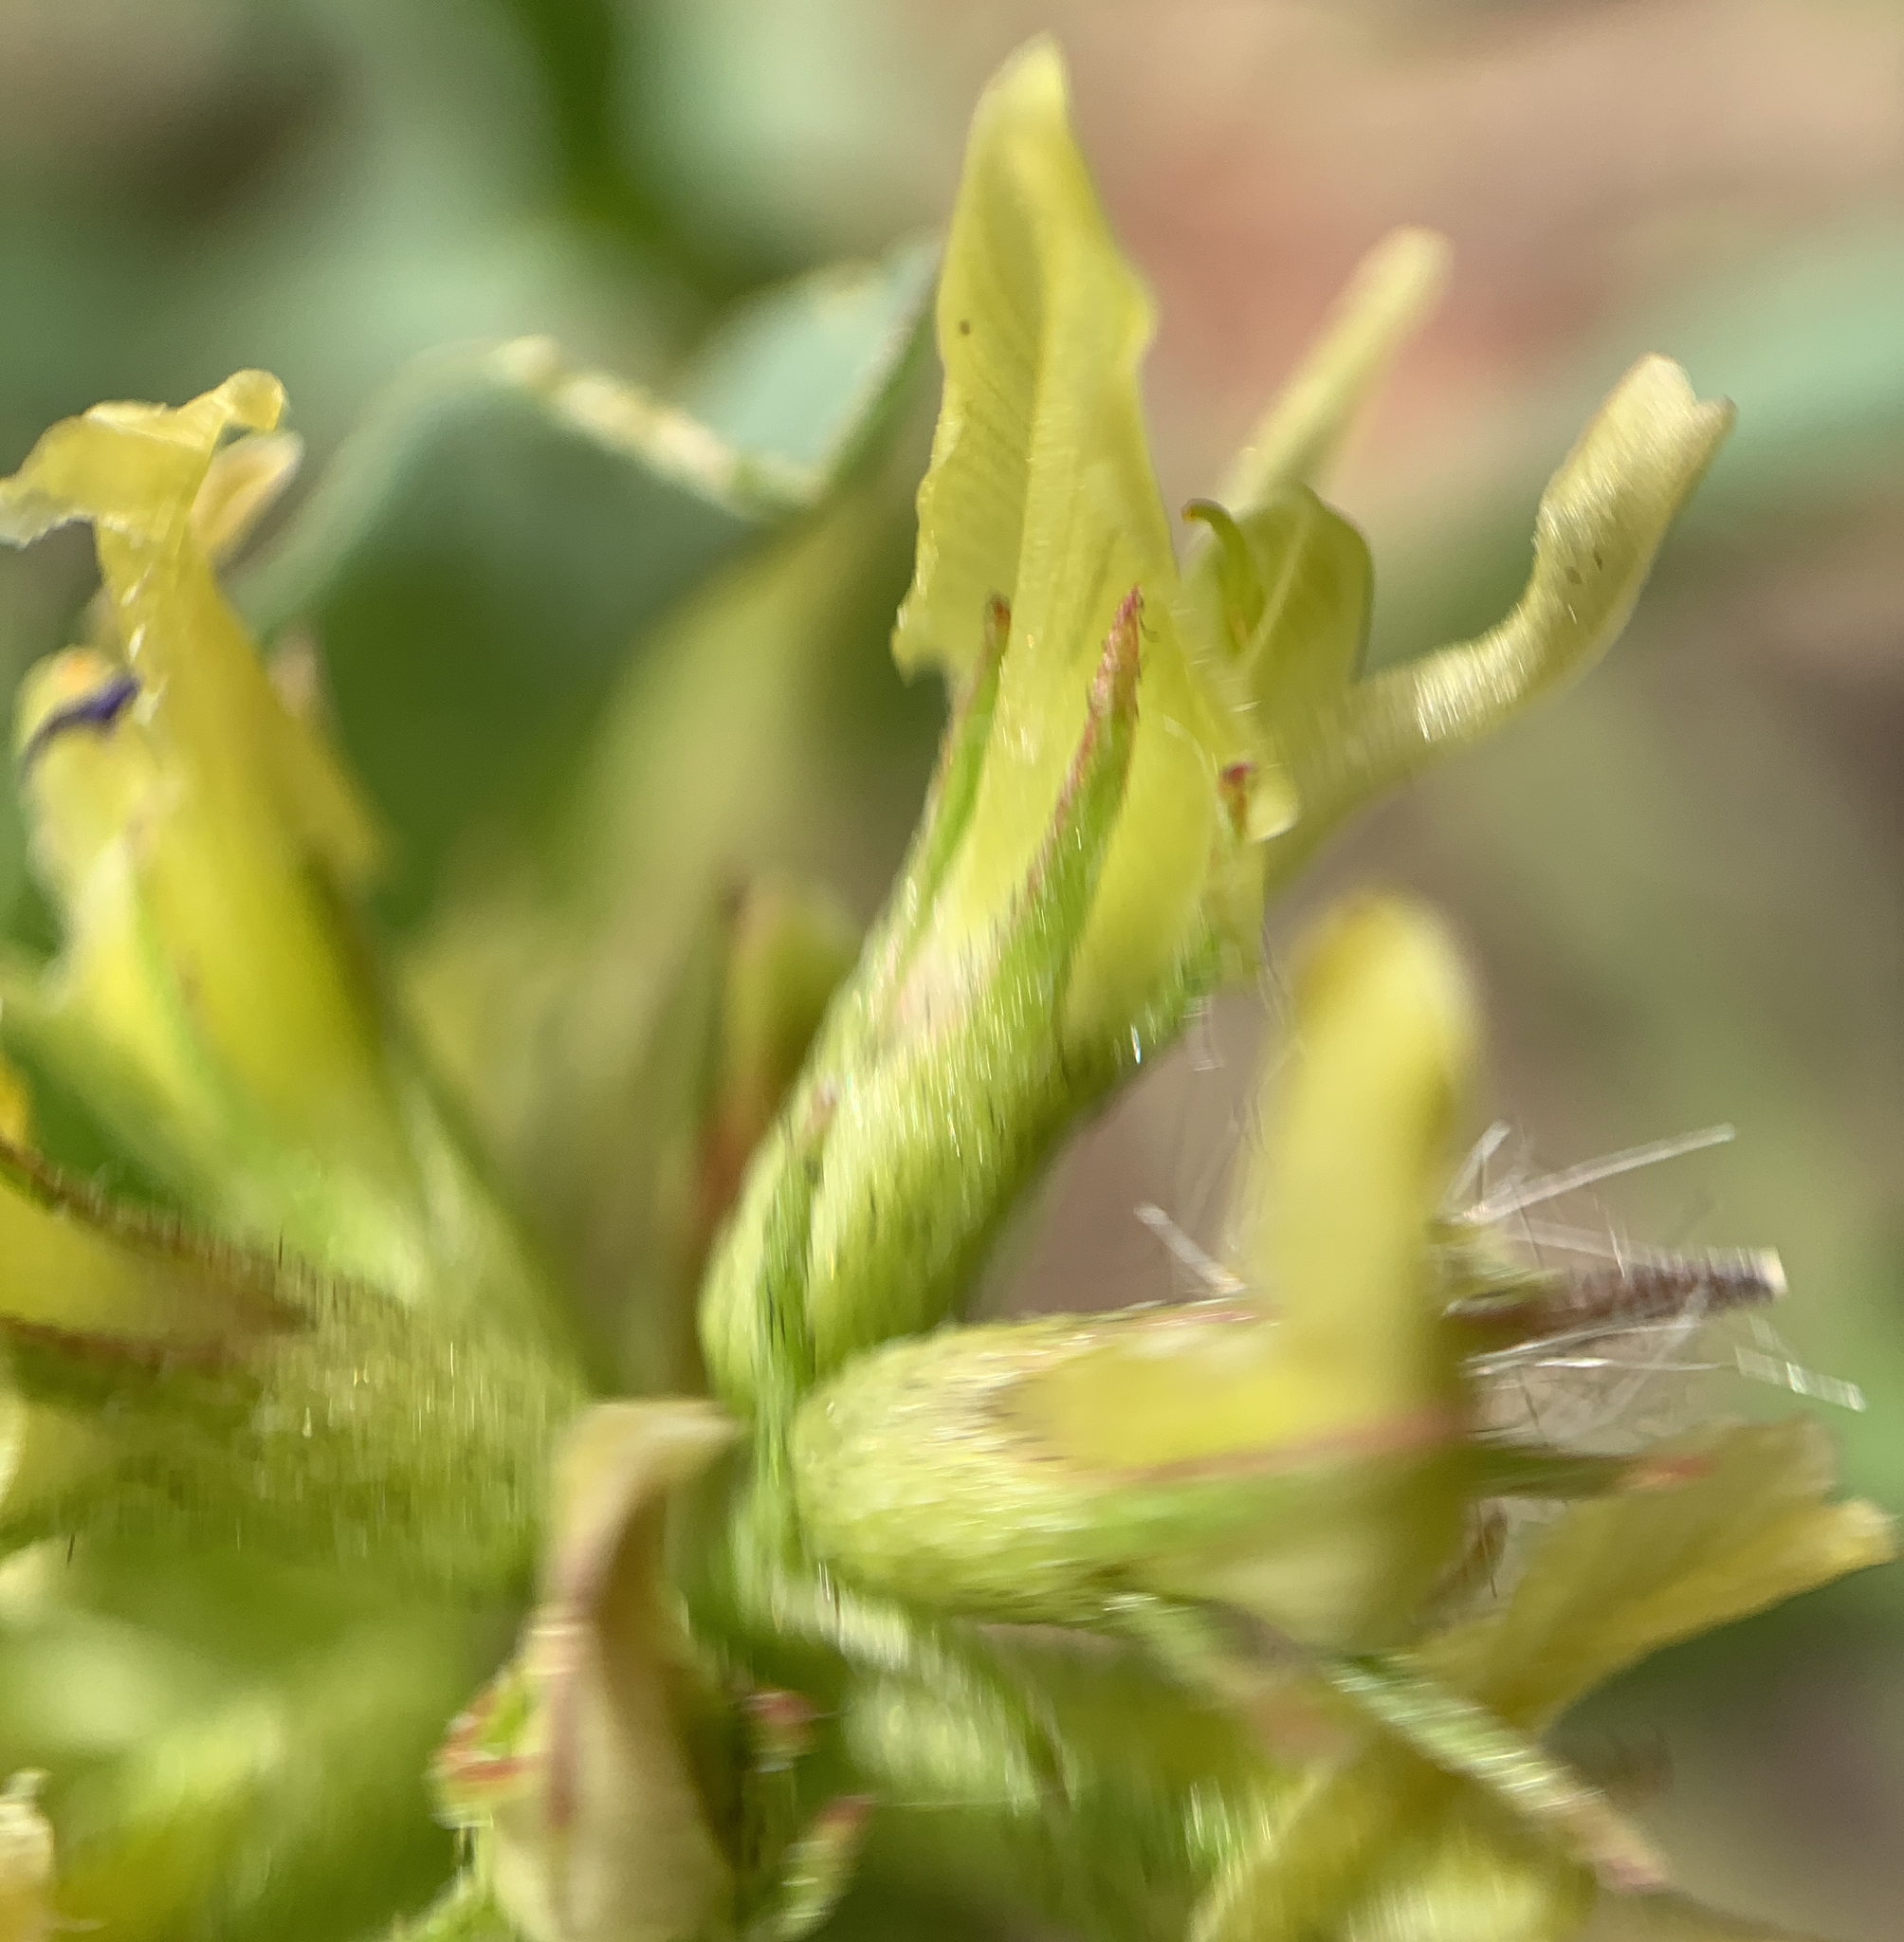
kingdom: Plantae
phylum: Tracheophyta
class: Magnoliopsida
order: Fabales
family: Fabaceae
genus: Astragalus
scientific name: Astragalus lentiginosus
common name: Freckled milkvetch
